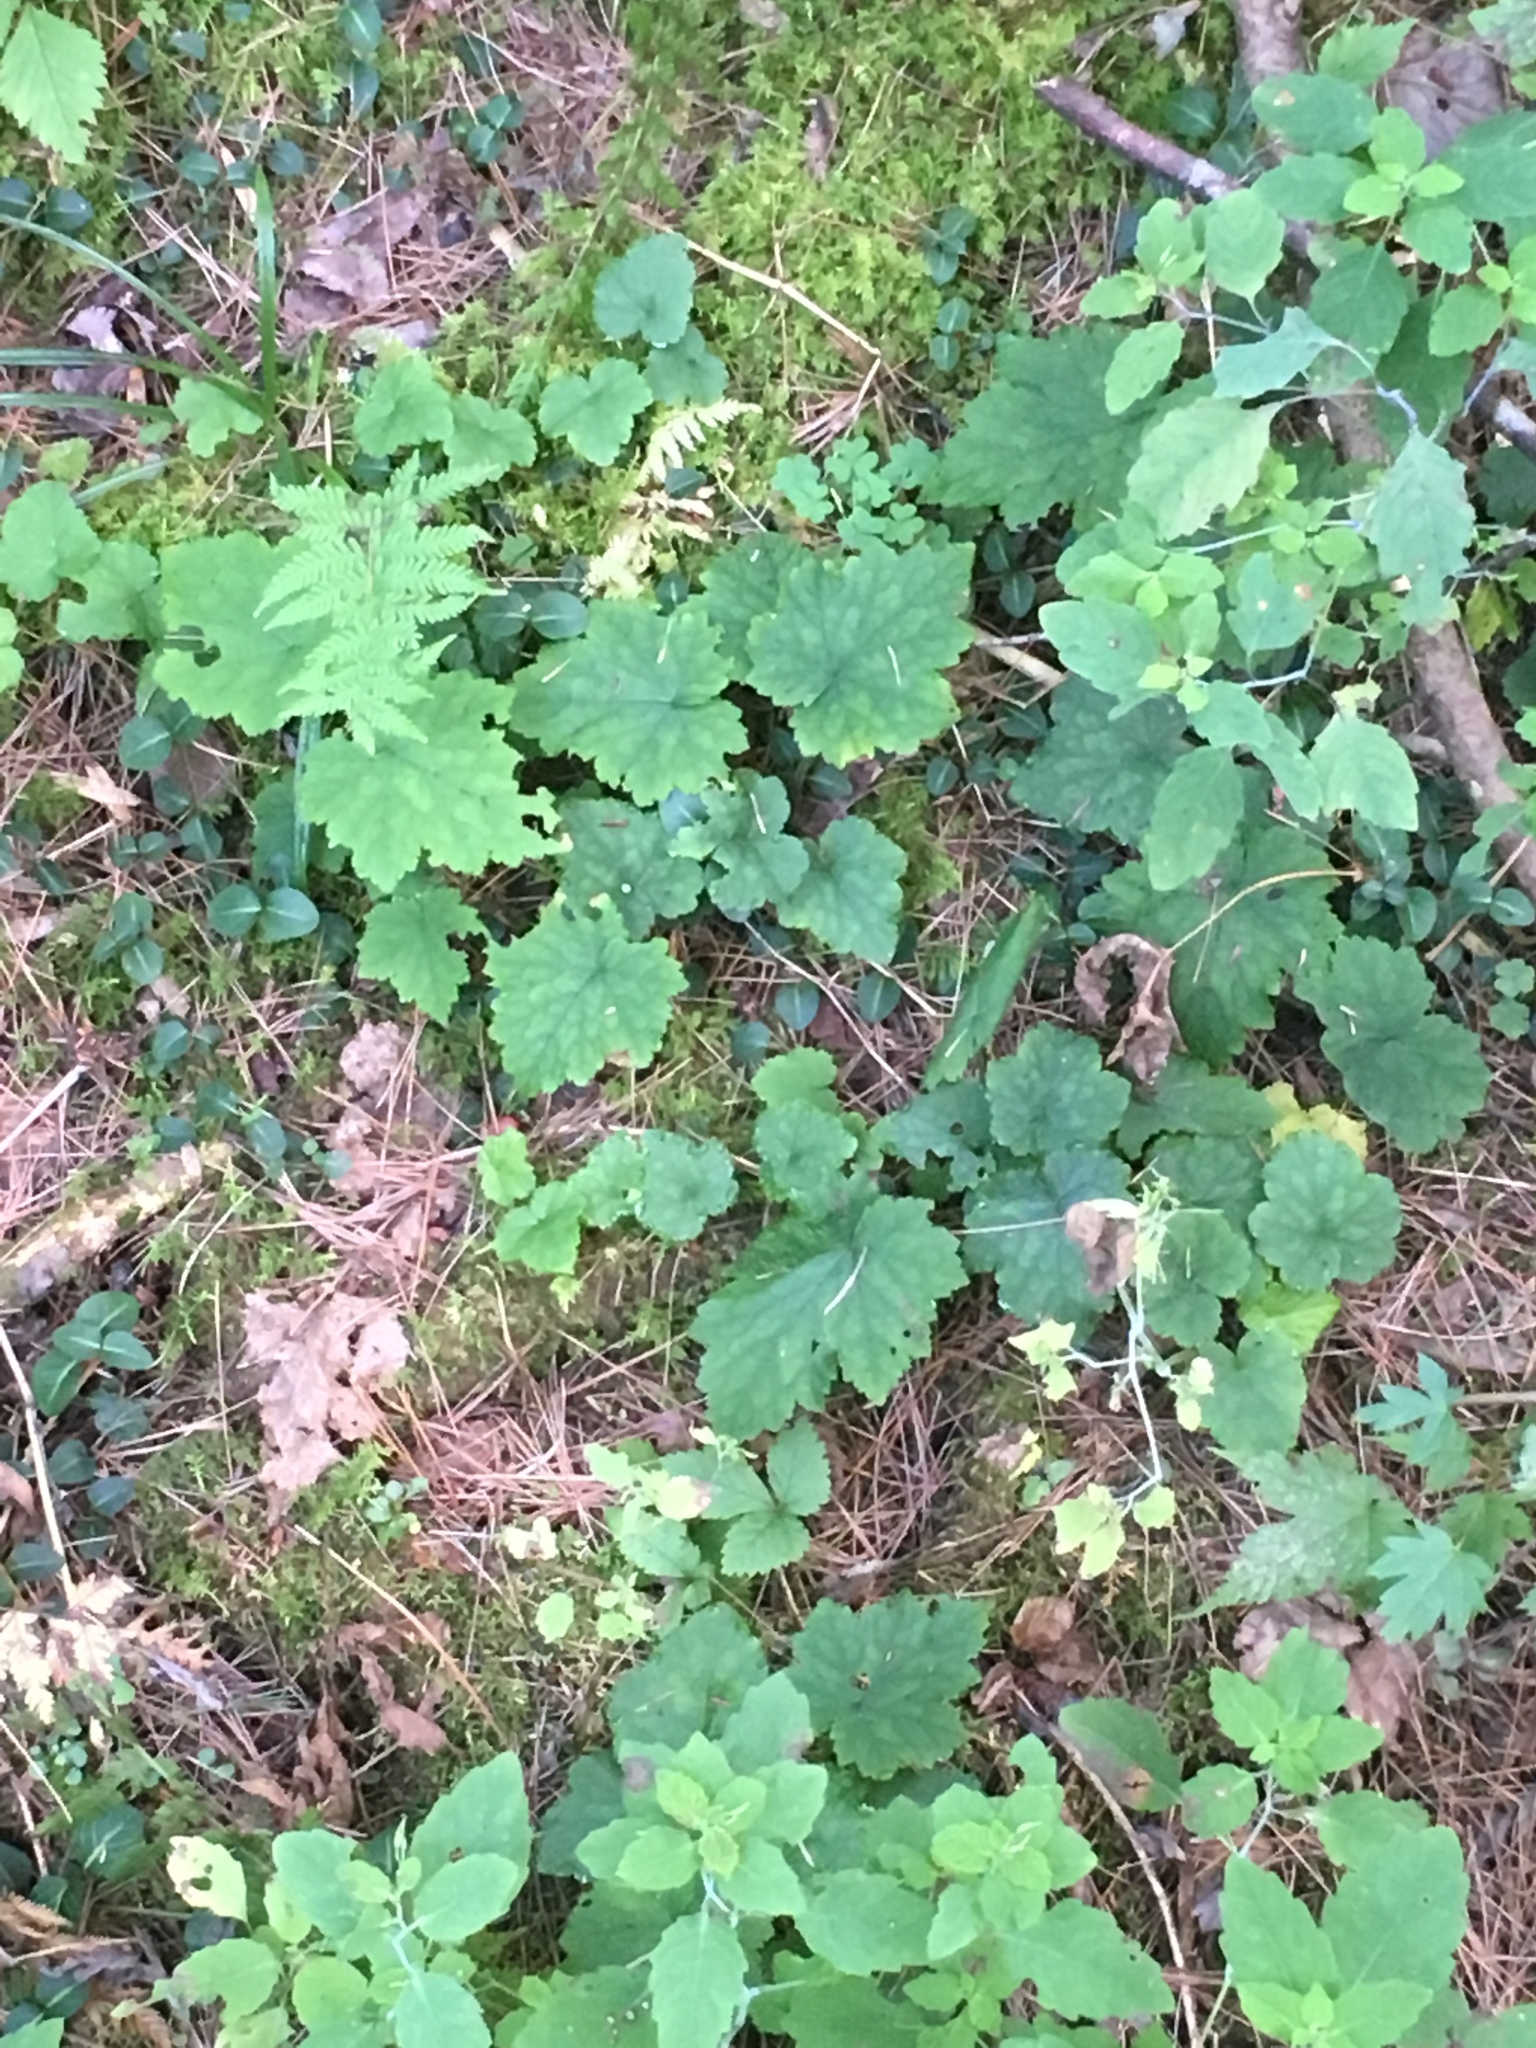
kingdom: Plantae
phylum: Tracheophyta
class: Magnoliopsida
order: Saxifragales
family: Saxifragaceae
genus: Tiarella
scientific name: Tiarella stolonifera
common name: Stoloniferous foamflower
